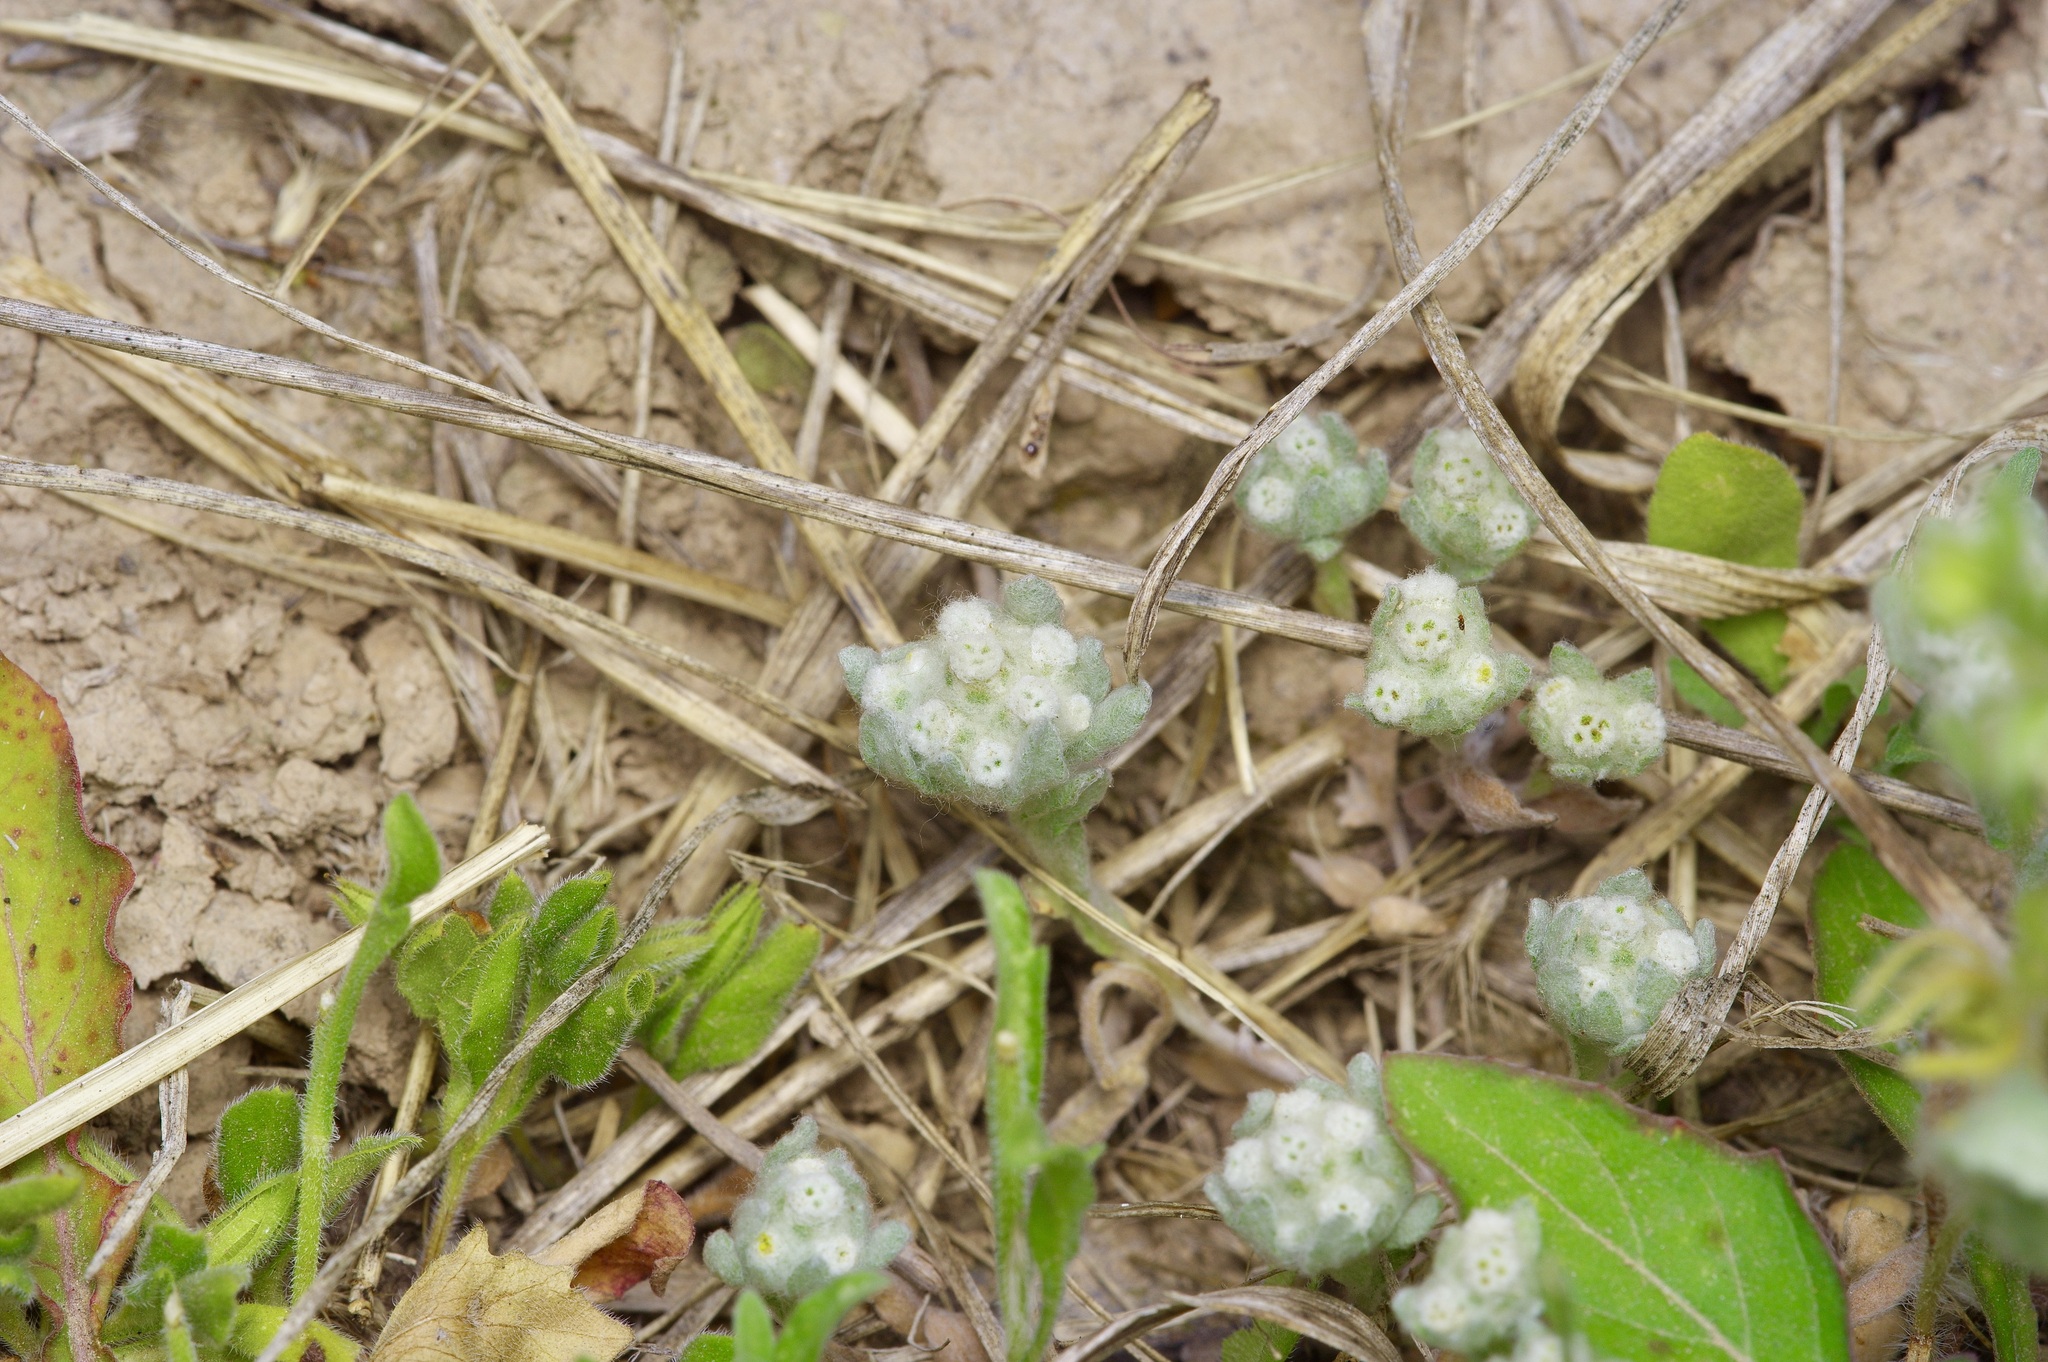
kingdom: Plantae
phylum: Tracheophyta
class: Magnoliopsida
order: Asterales
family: Asteraceae
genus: Diaperia
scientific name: Diaperia verna
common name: Many-stem rabbit-tobacco
